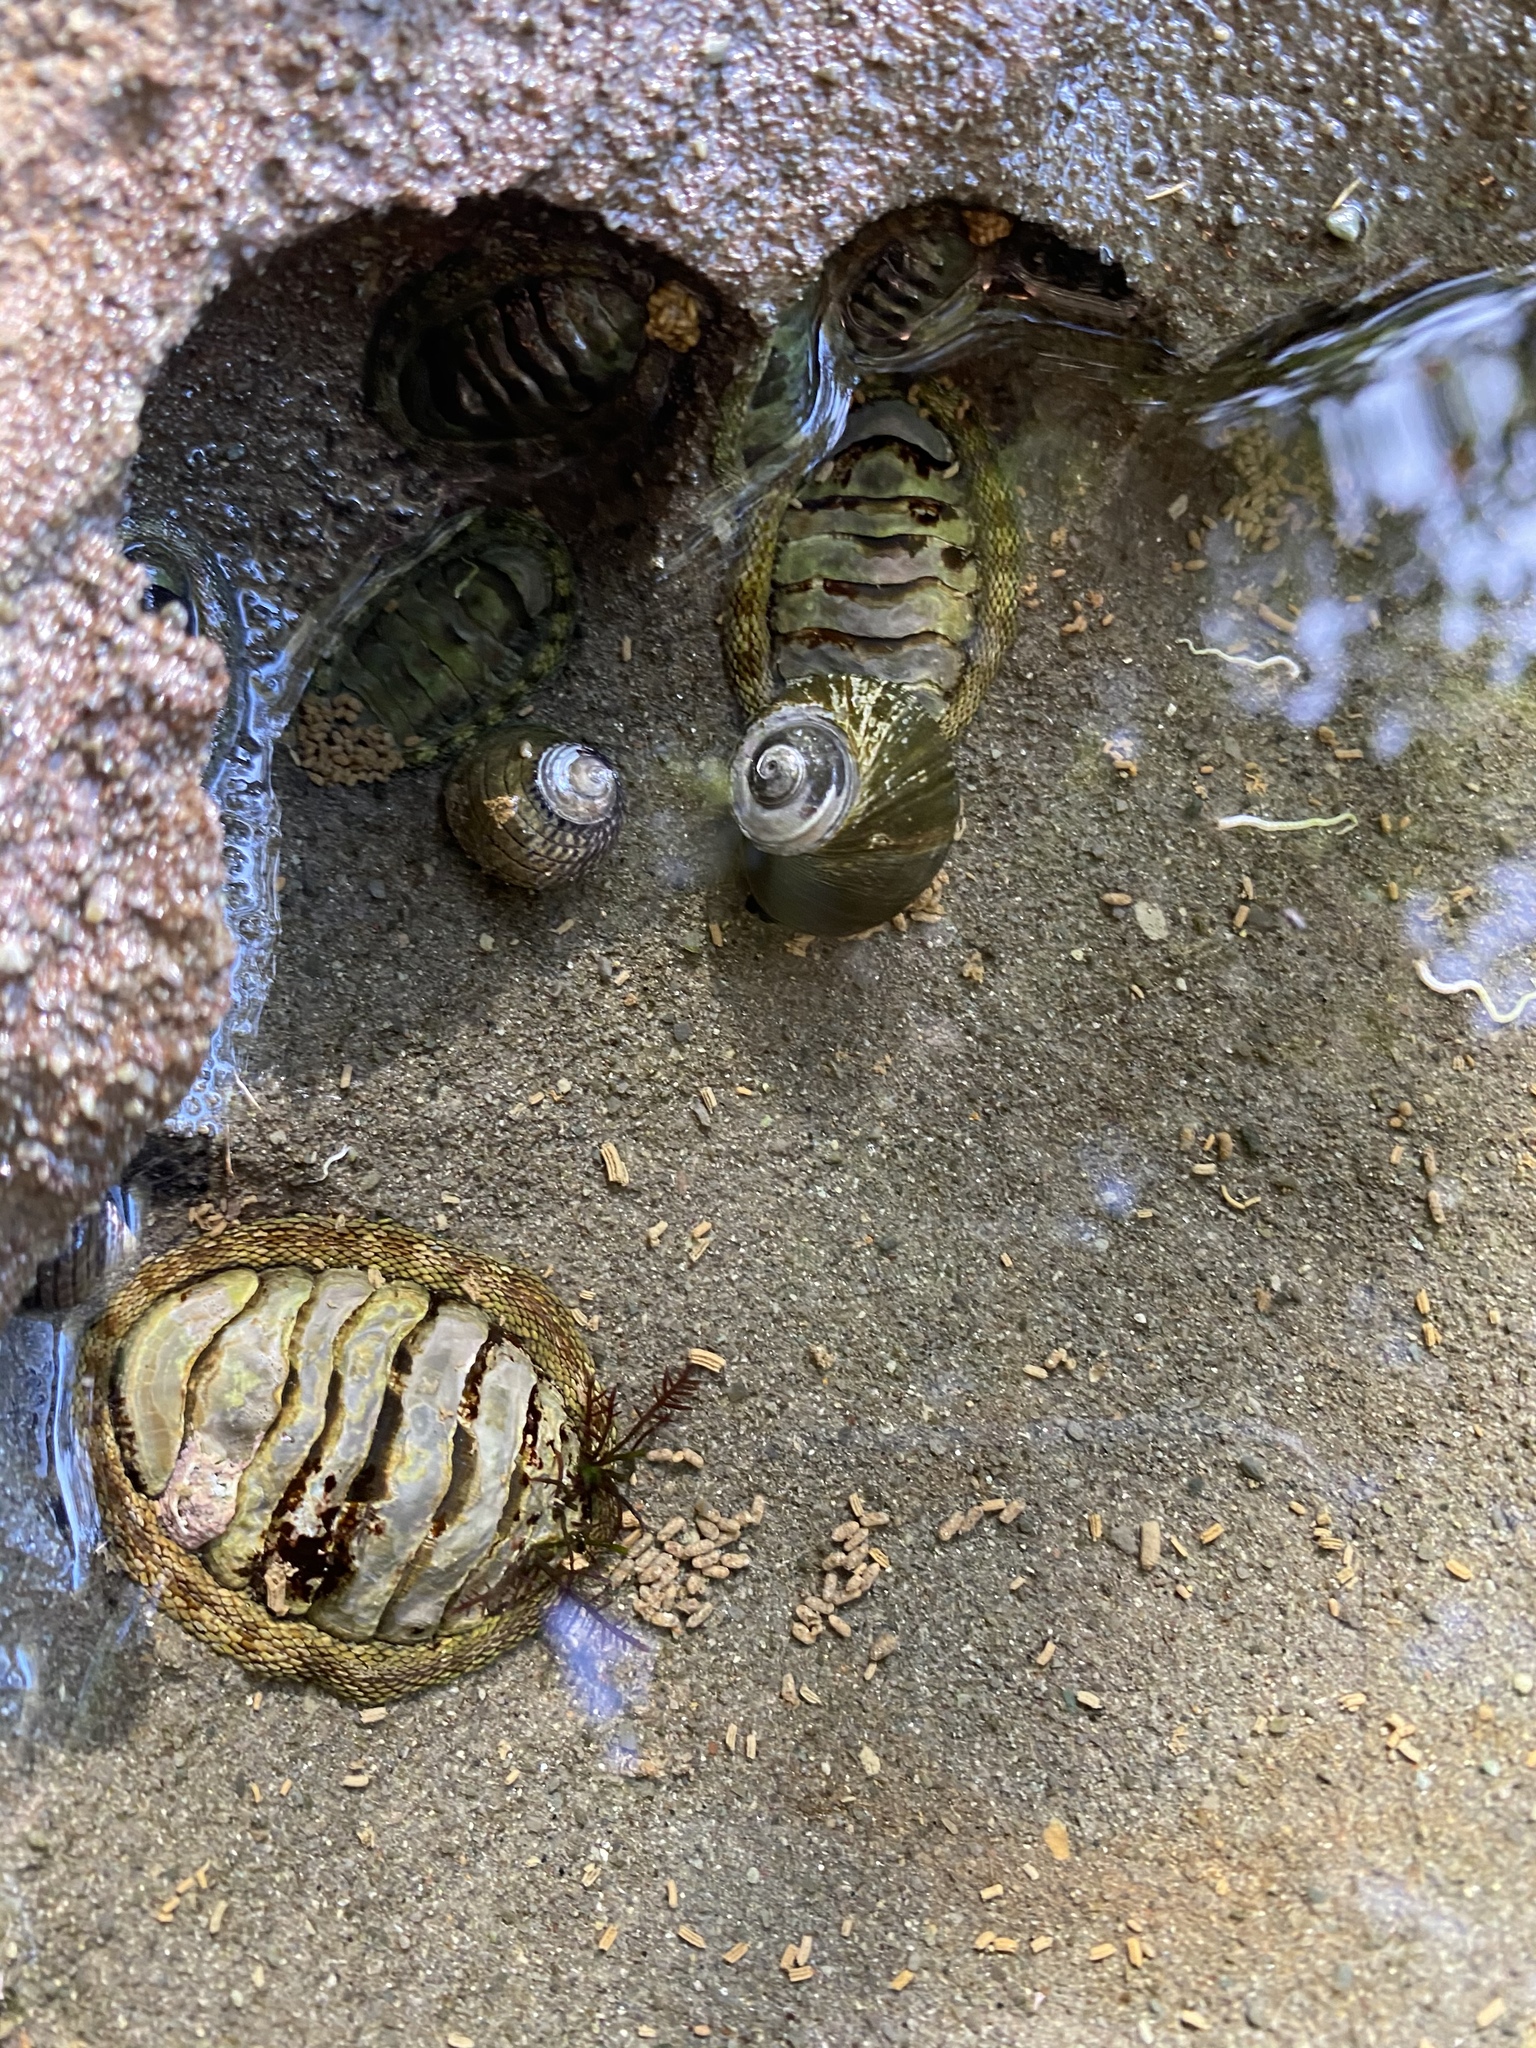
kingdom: Animalia
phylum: Mollusca
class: Polyplacophora
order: Chitonida
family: Chitonidae
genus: Sypharochiton
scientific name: Sypharochiton pelliserpentis
